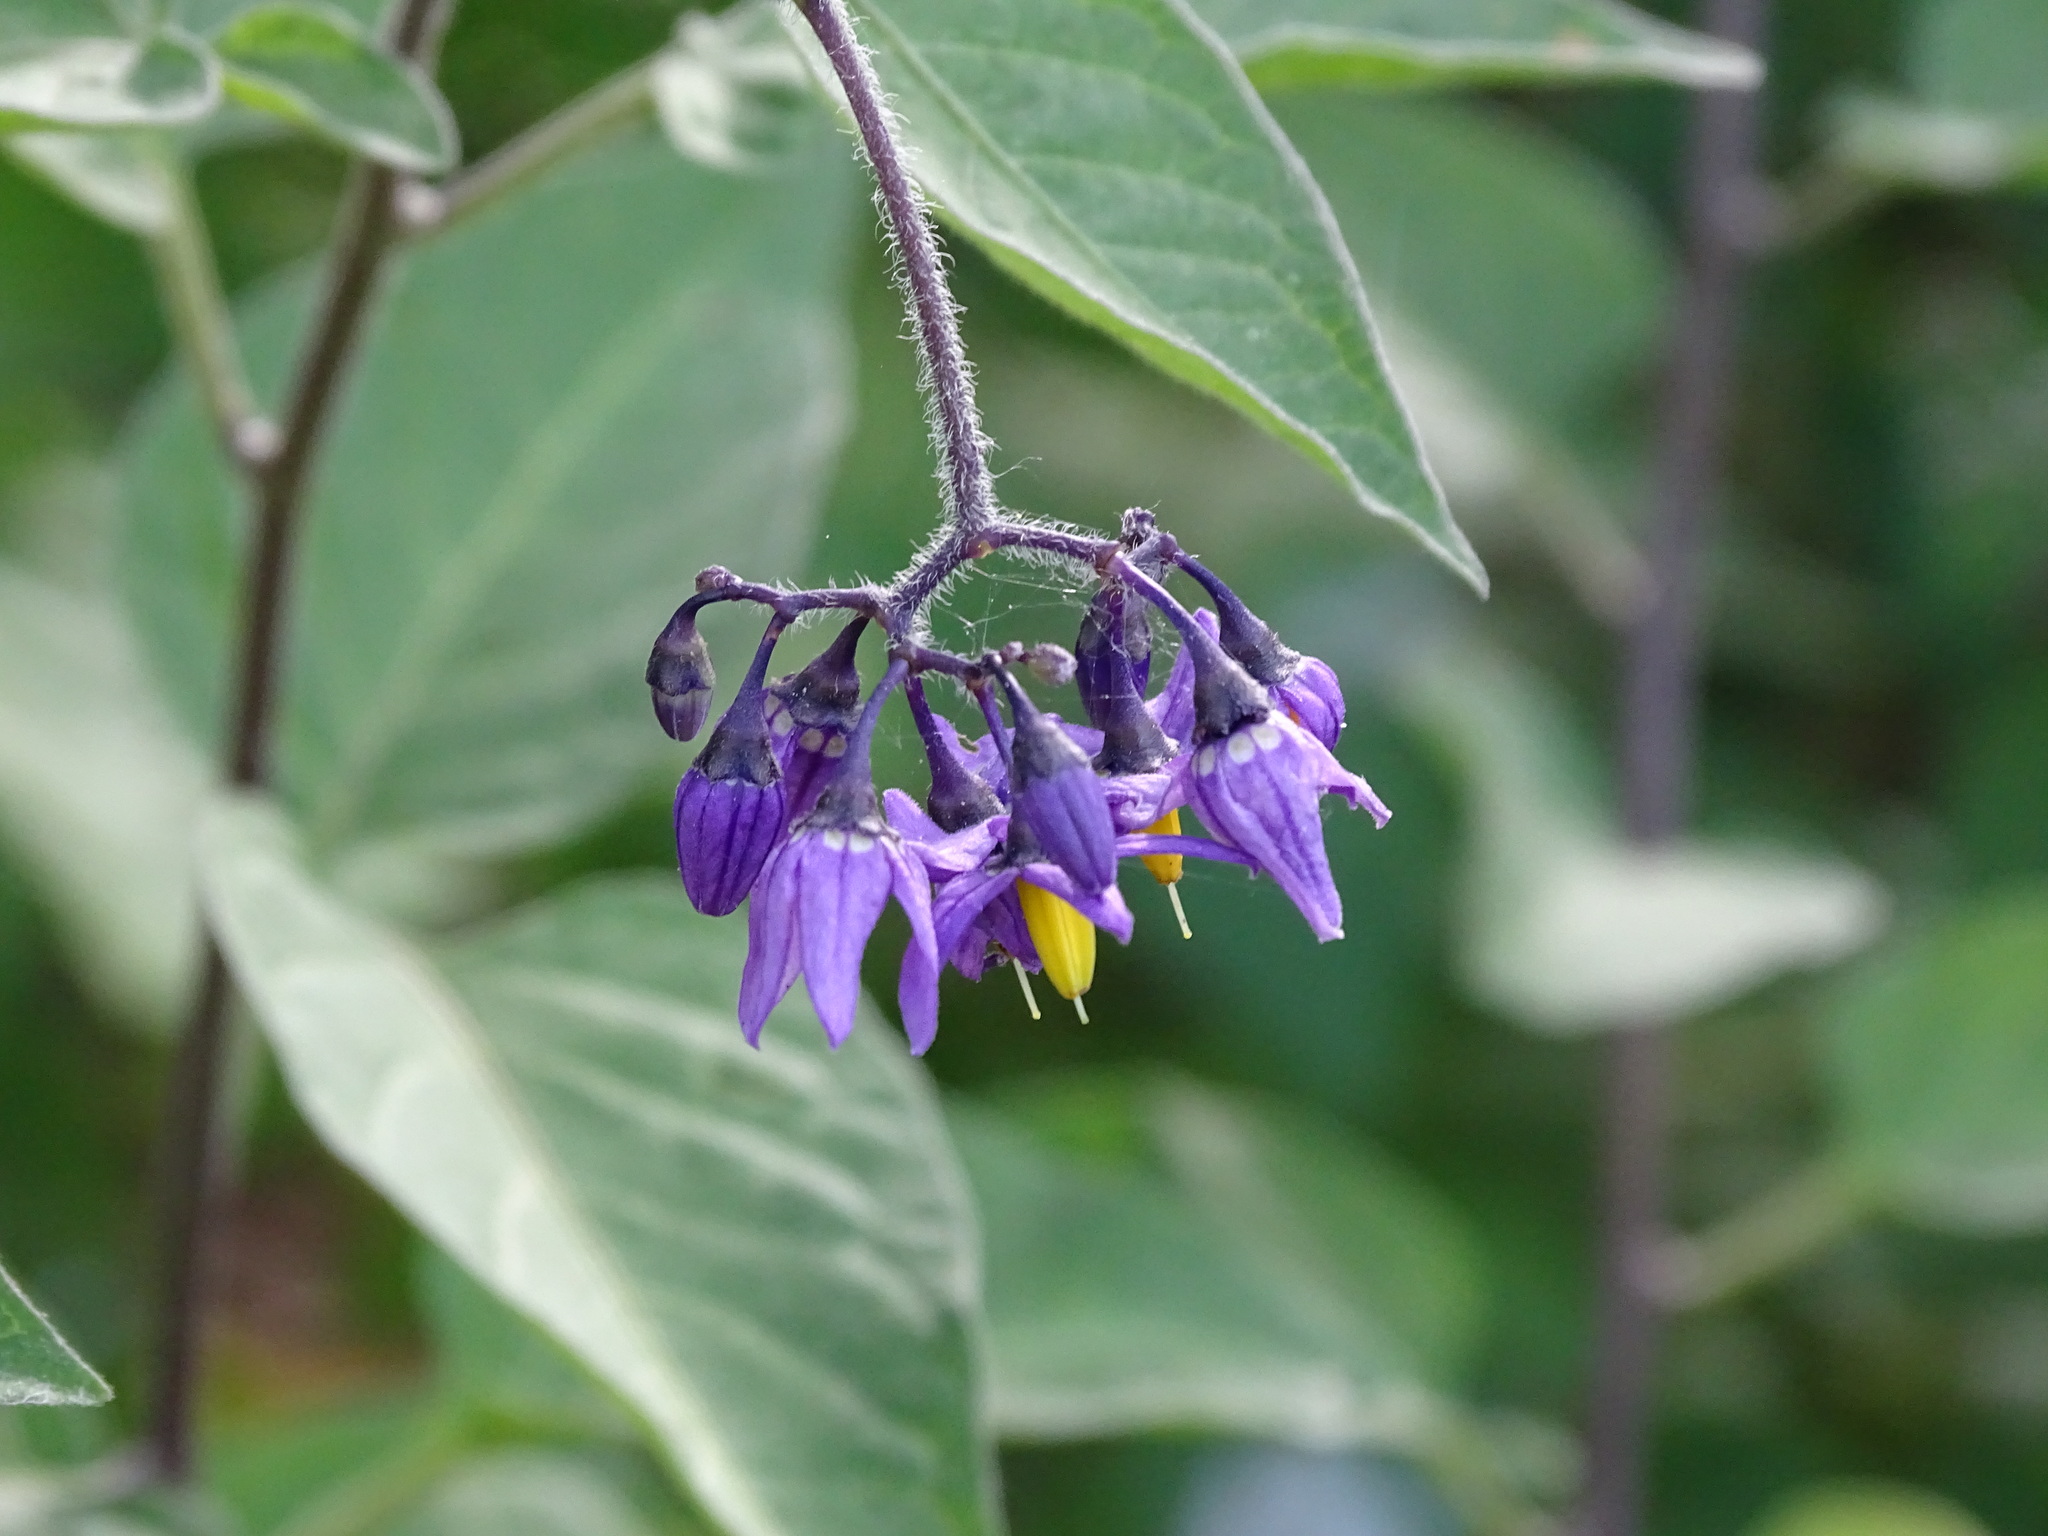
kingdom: Plantae
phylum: Tracheophyta
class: Magnoliopsida
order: Solanales
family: Solanaceae
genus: Solanum
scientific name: Solanum dulcamara
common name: Climbing nightshade
